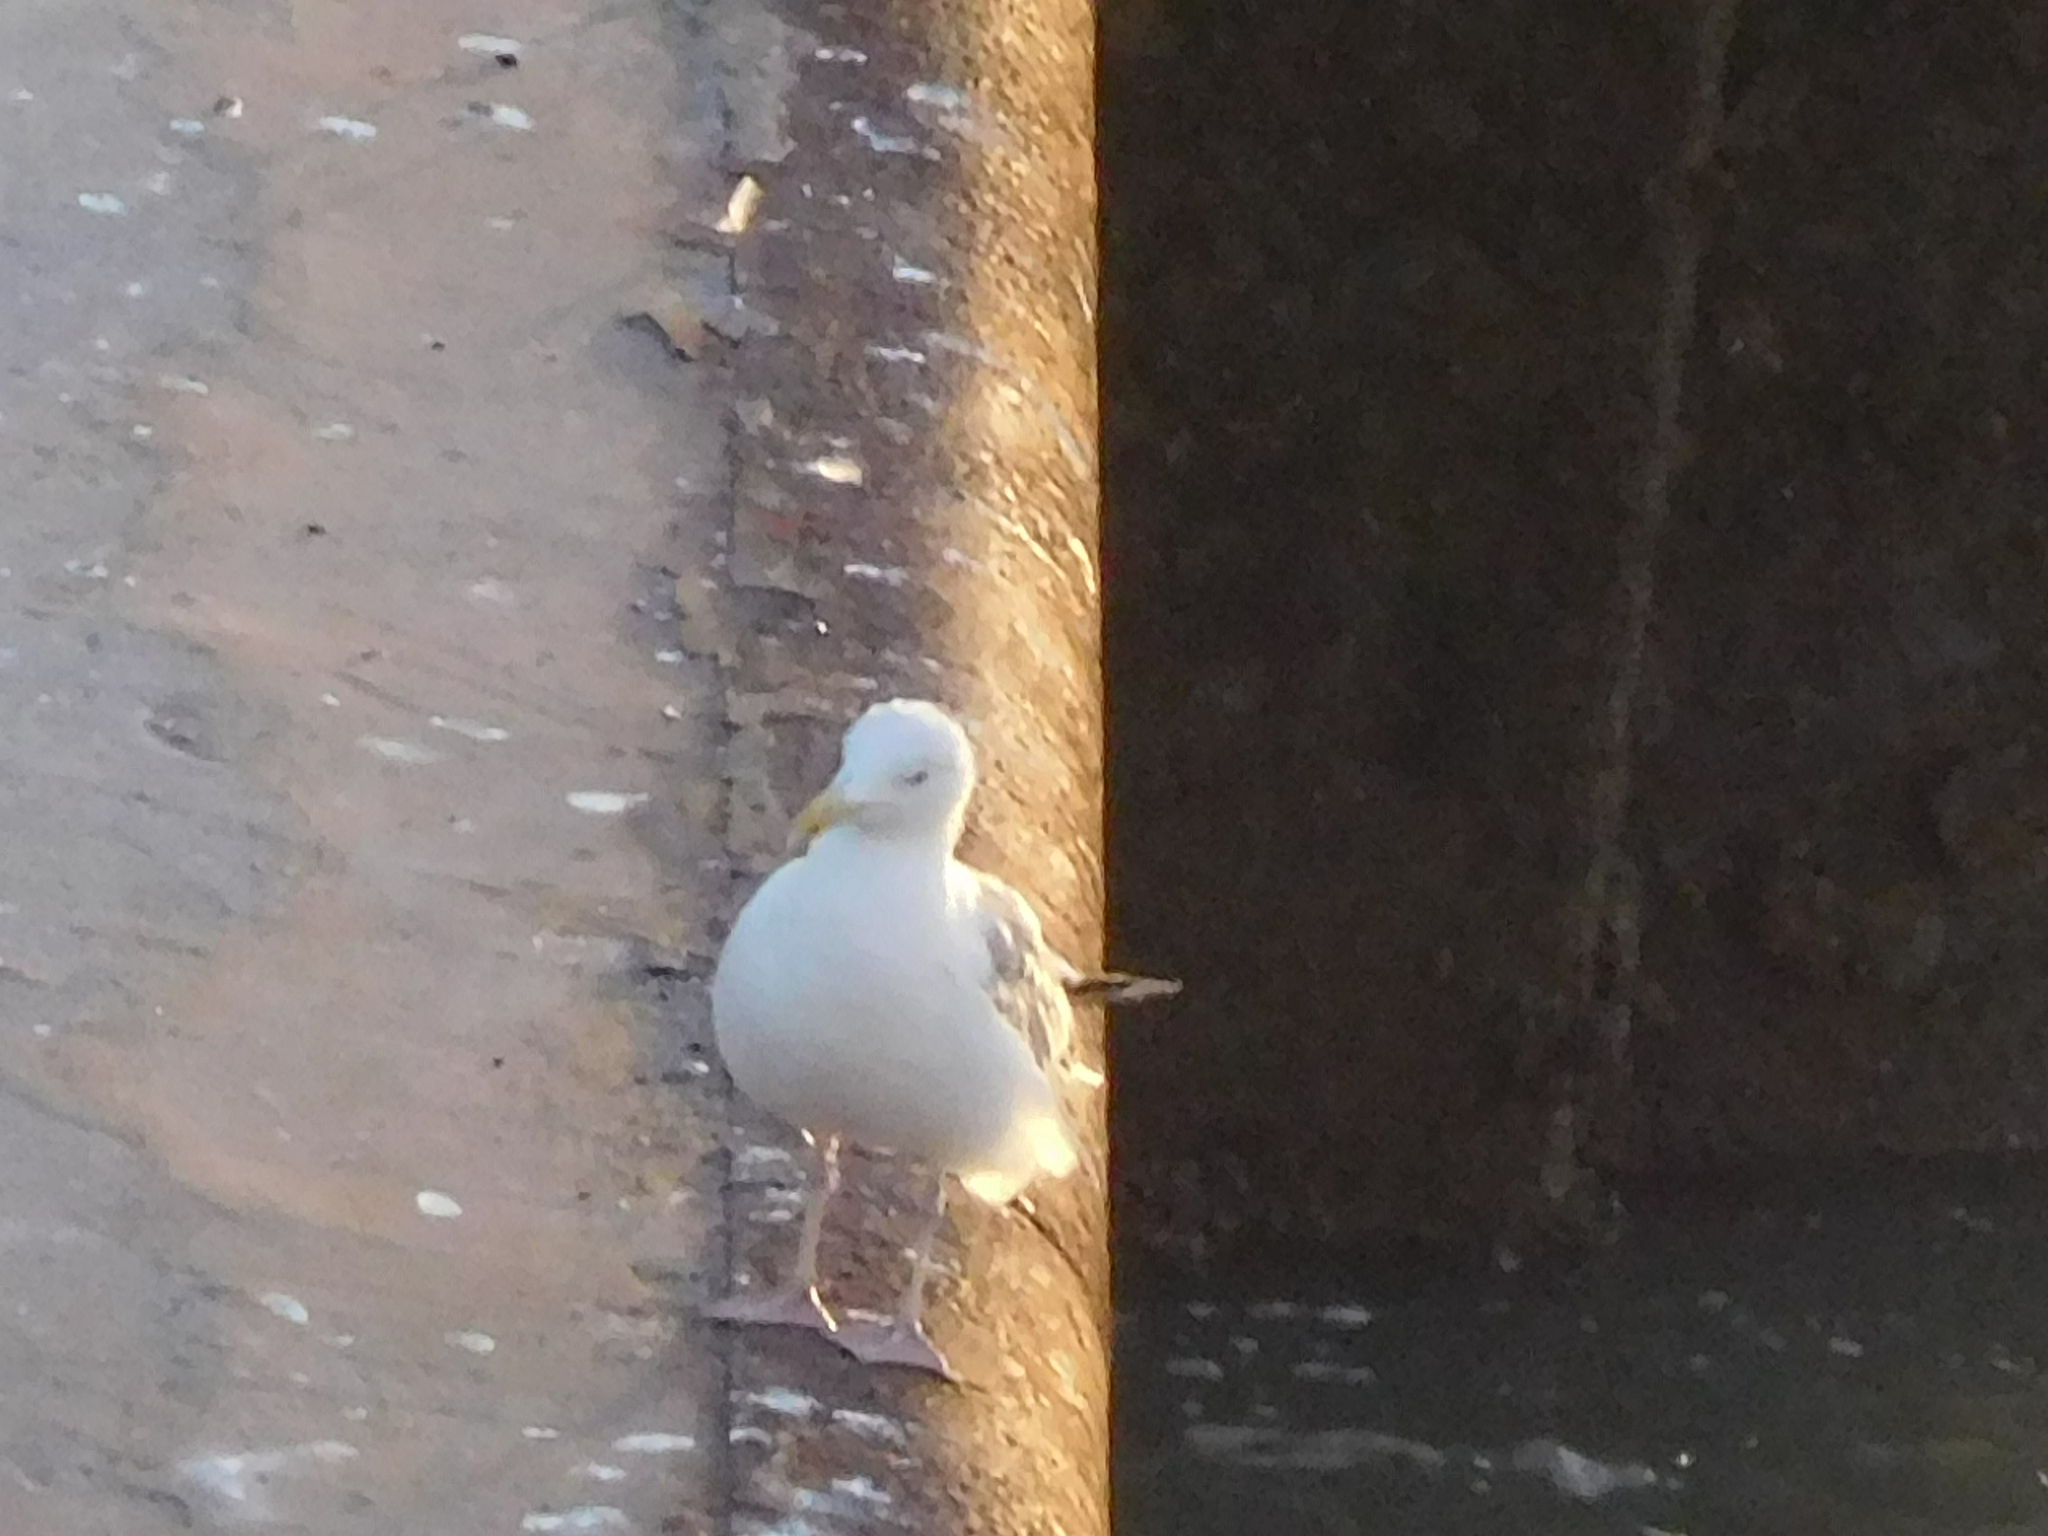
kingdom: Animalia
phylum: Chordata
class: Aves
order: Charadriiformes
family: Laridae
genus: Larus
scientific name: Larus argentatus
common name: Herring gull
